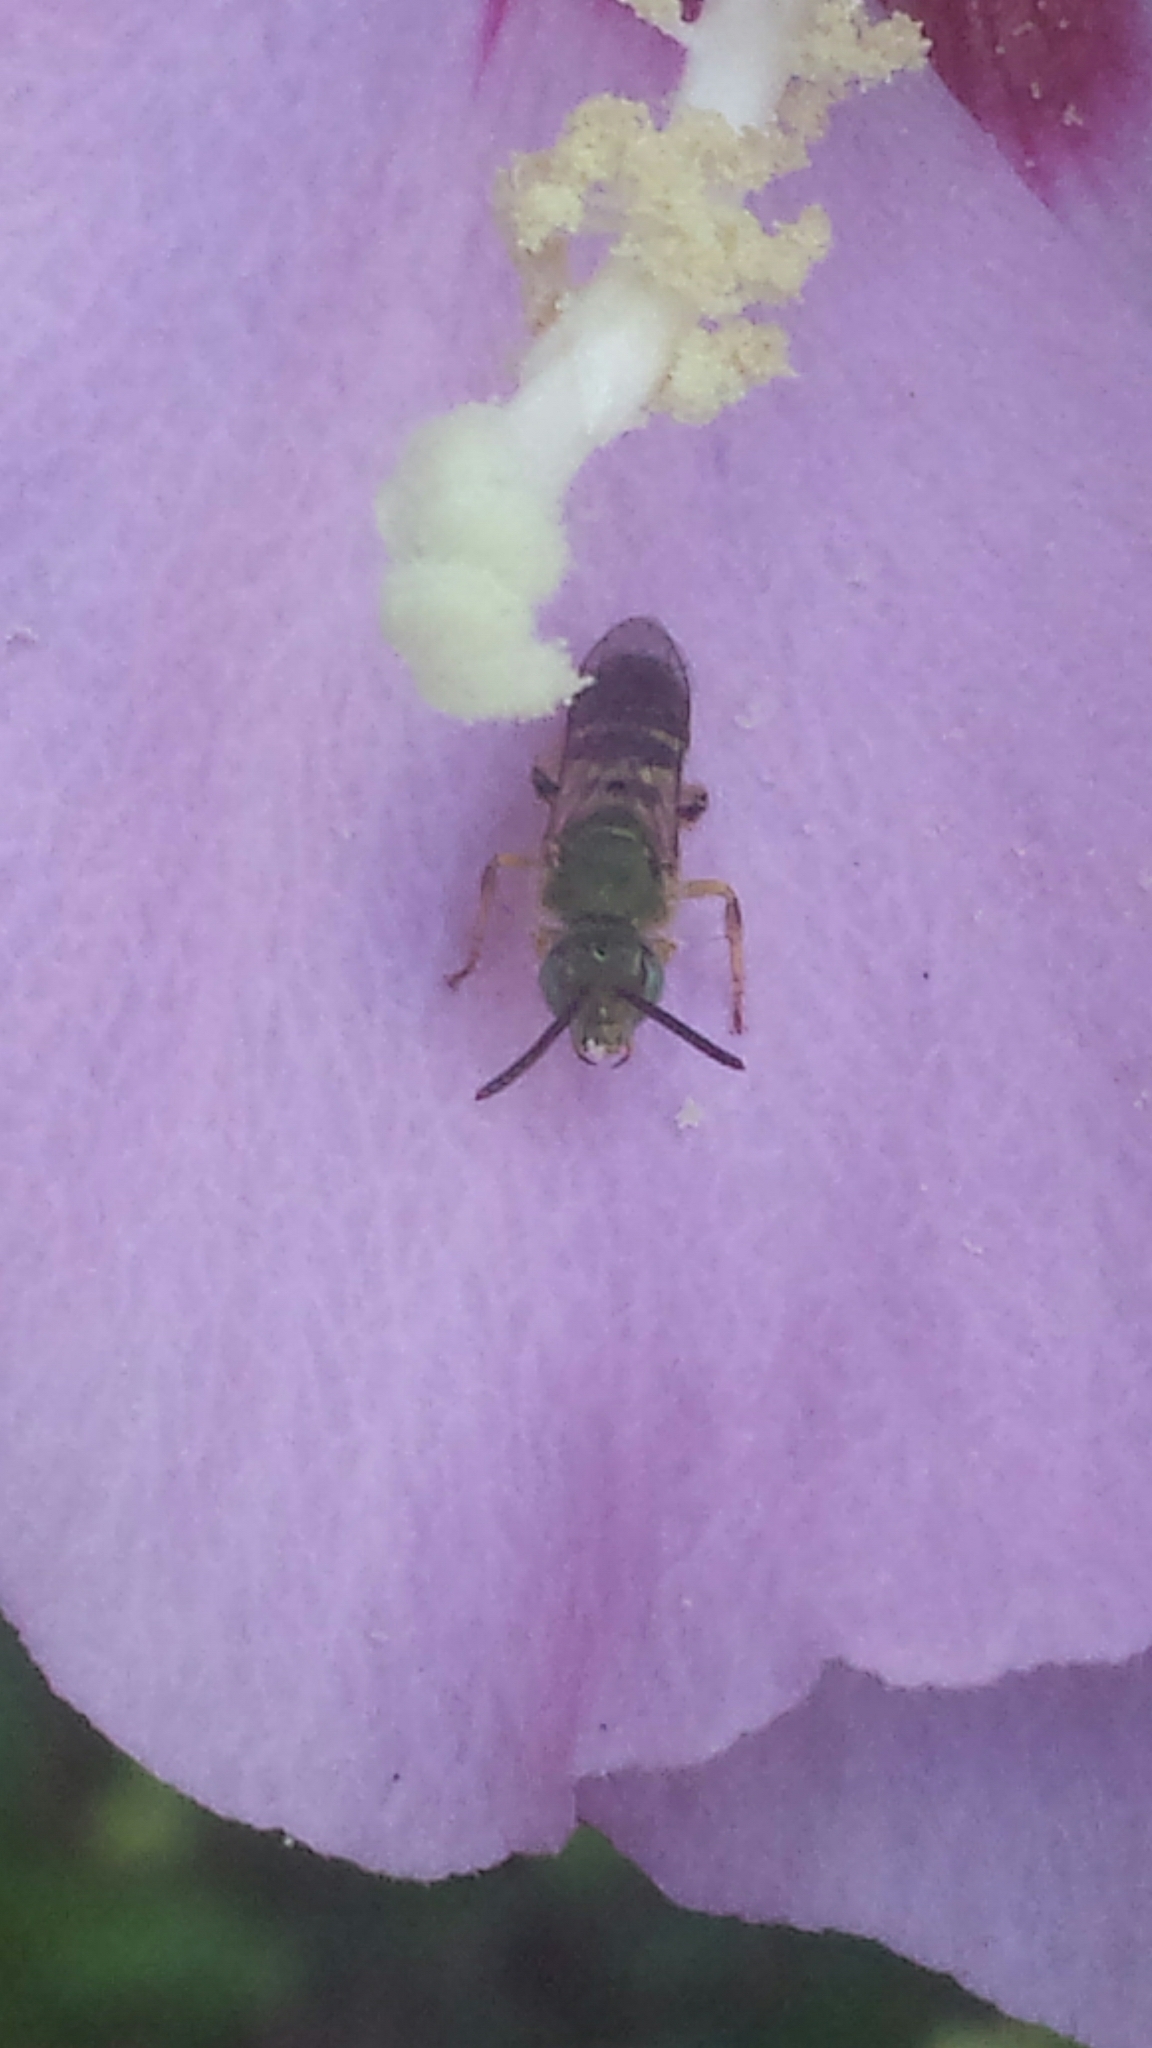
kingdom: Animalia
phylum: Arthropoda
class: Insecta
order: Hymenoptera
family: Halictidae
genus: Agapostemon
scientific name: Agapostemon
